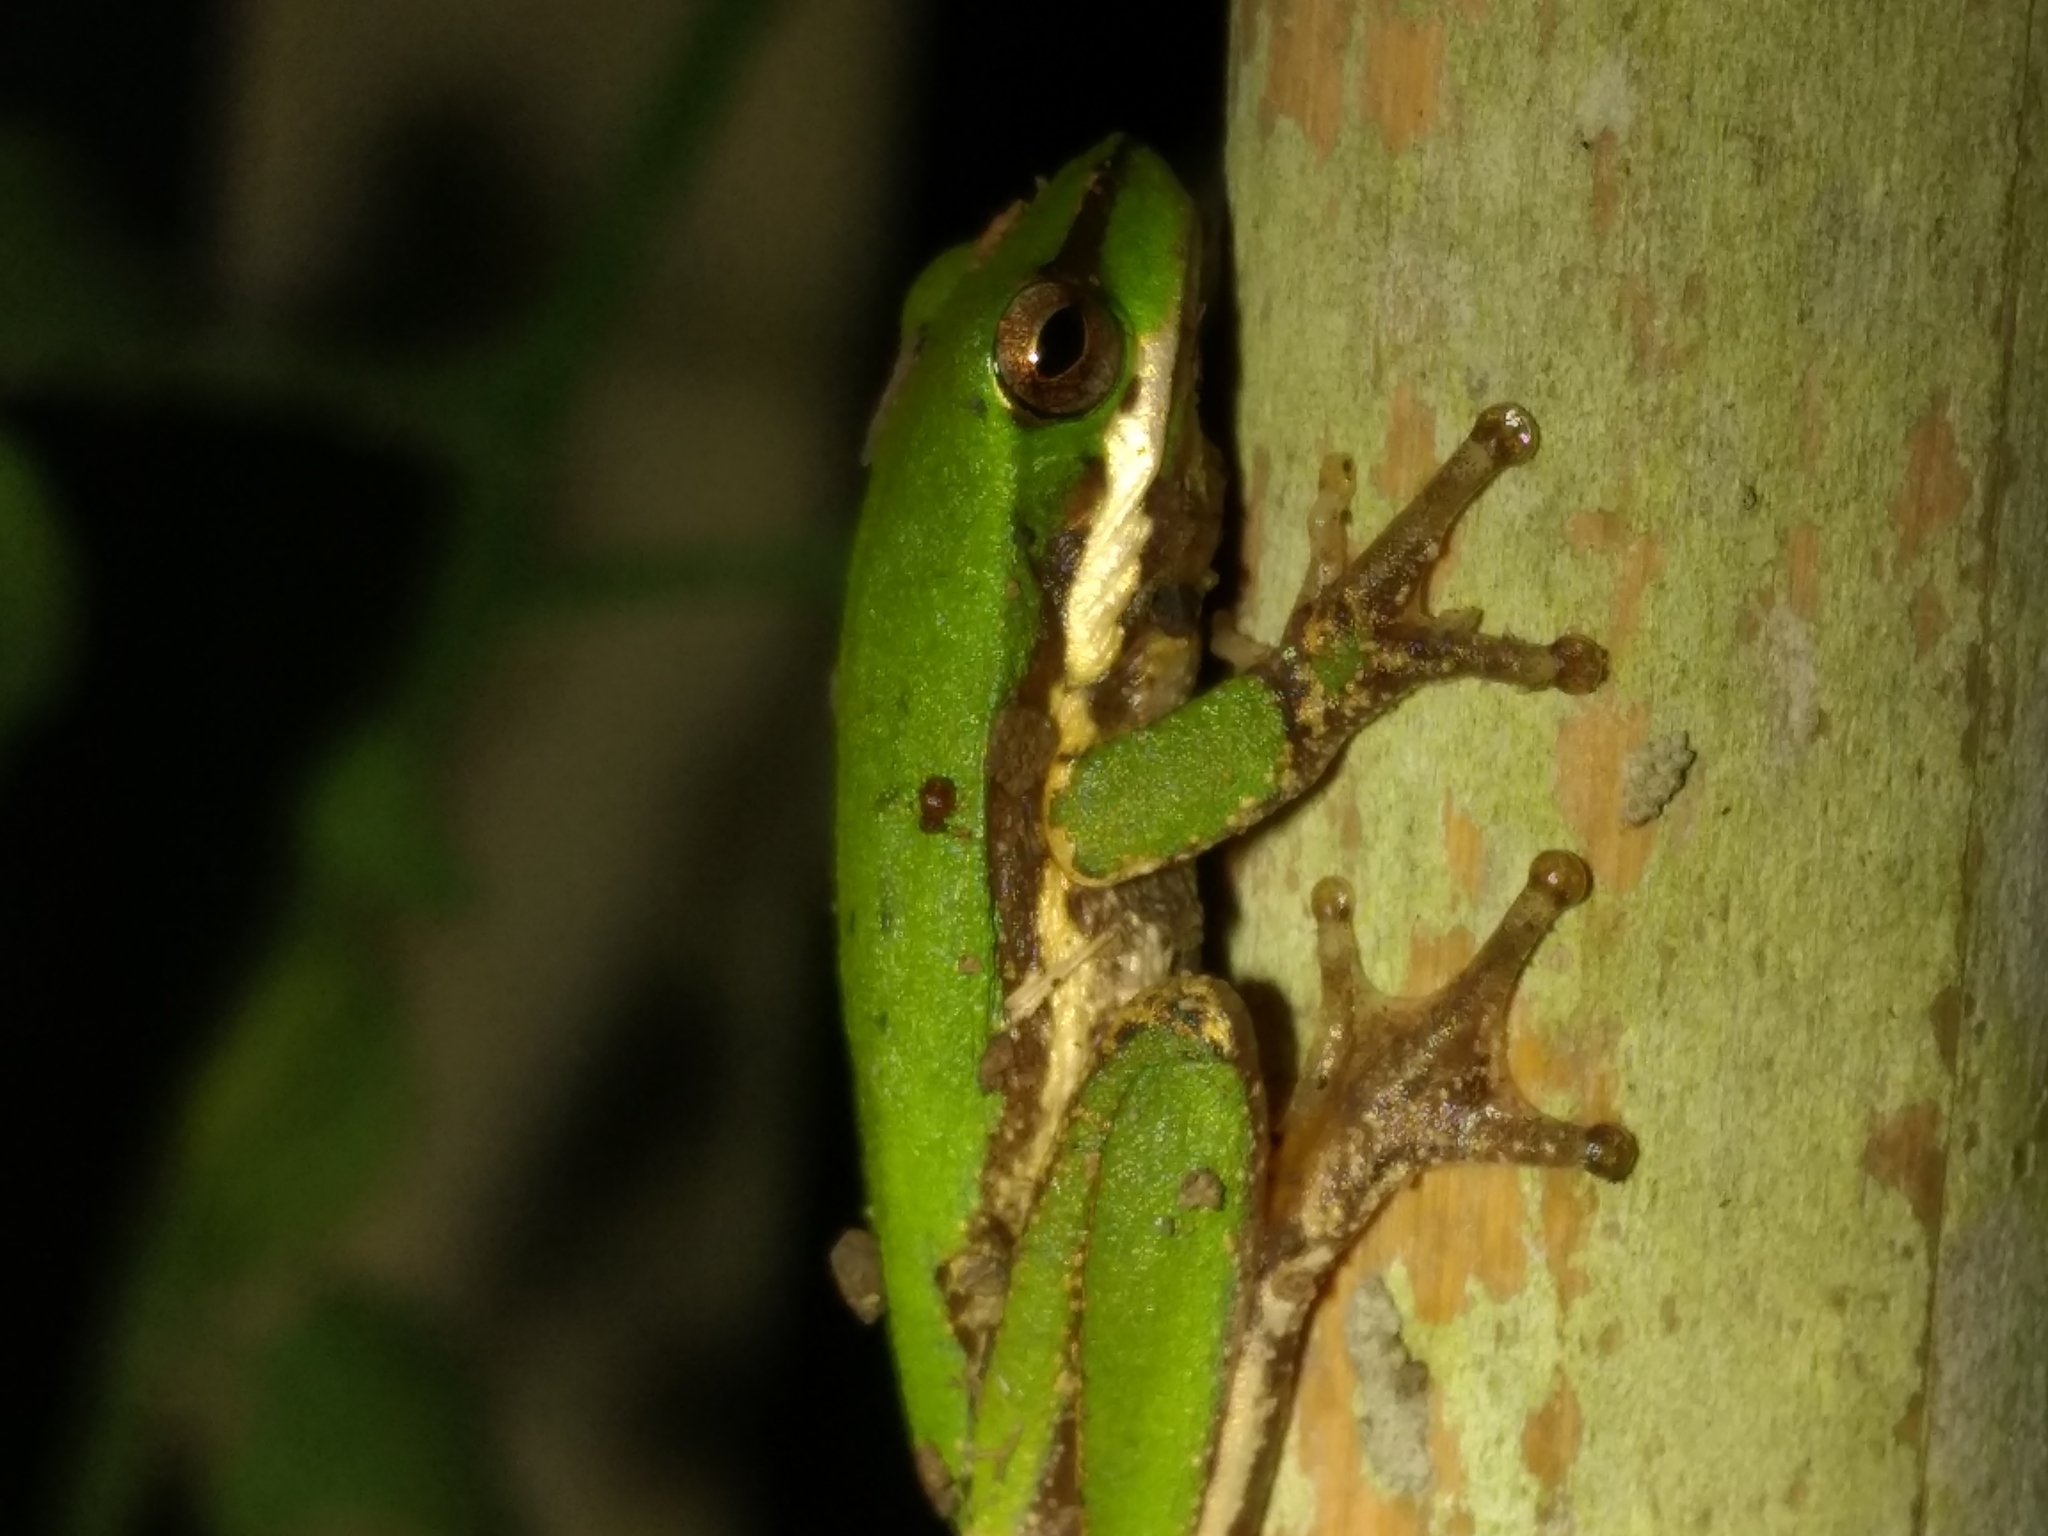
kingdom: Animalia
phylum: Chordata
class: Amphibia
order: Anura
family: Pelodryadidae
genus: Litoria
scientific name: Litoria fallax
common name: Eastern dwarf treefrog
